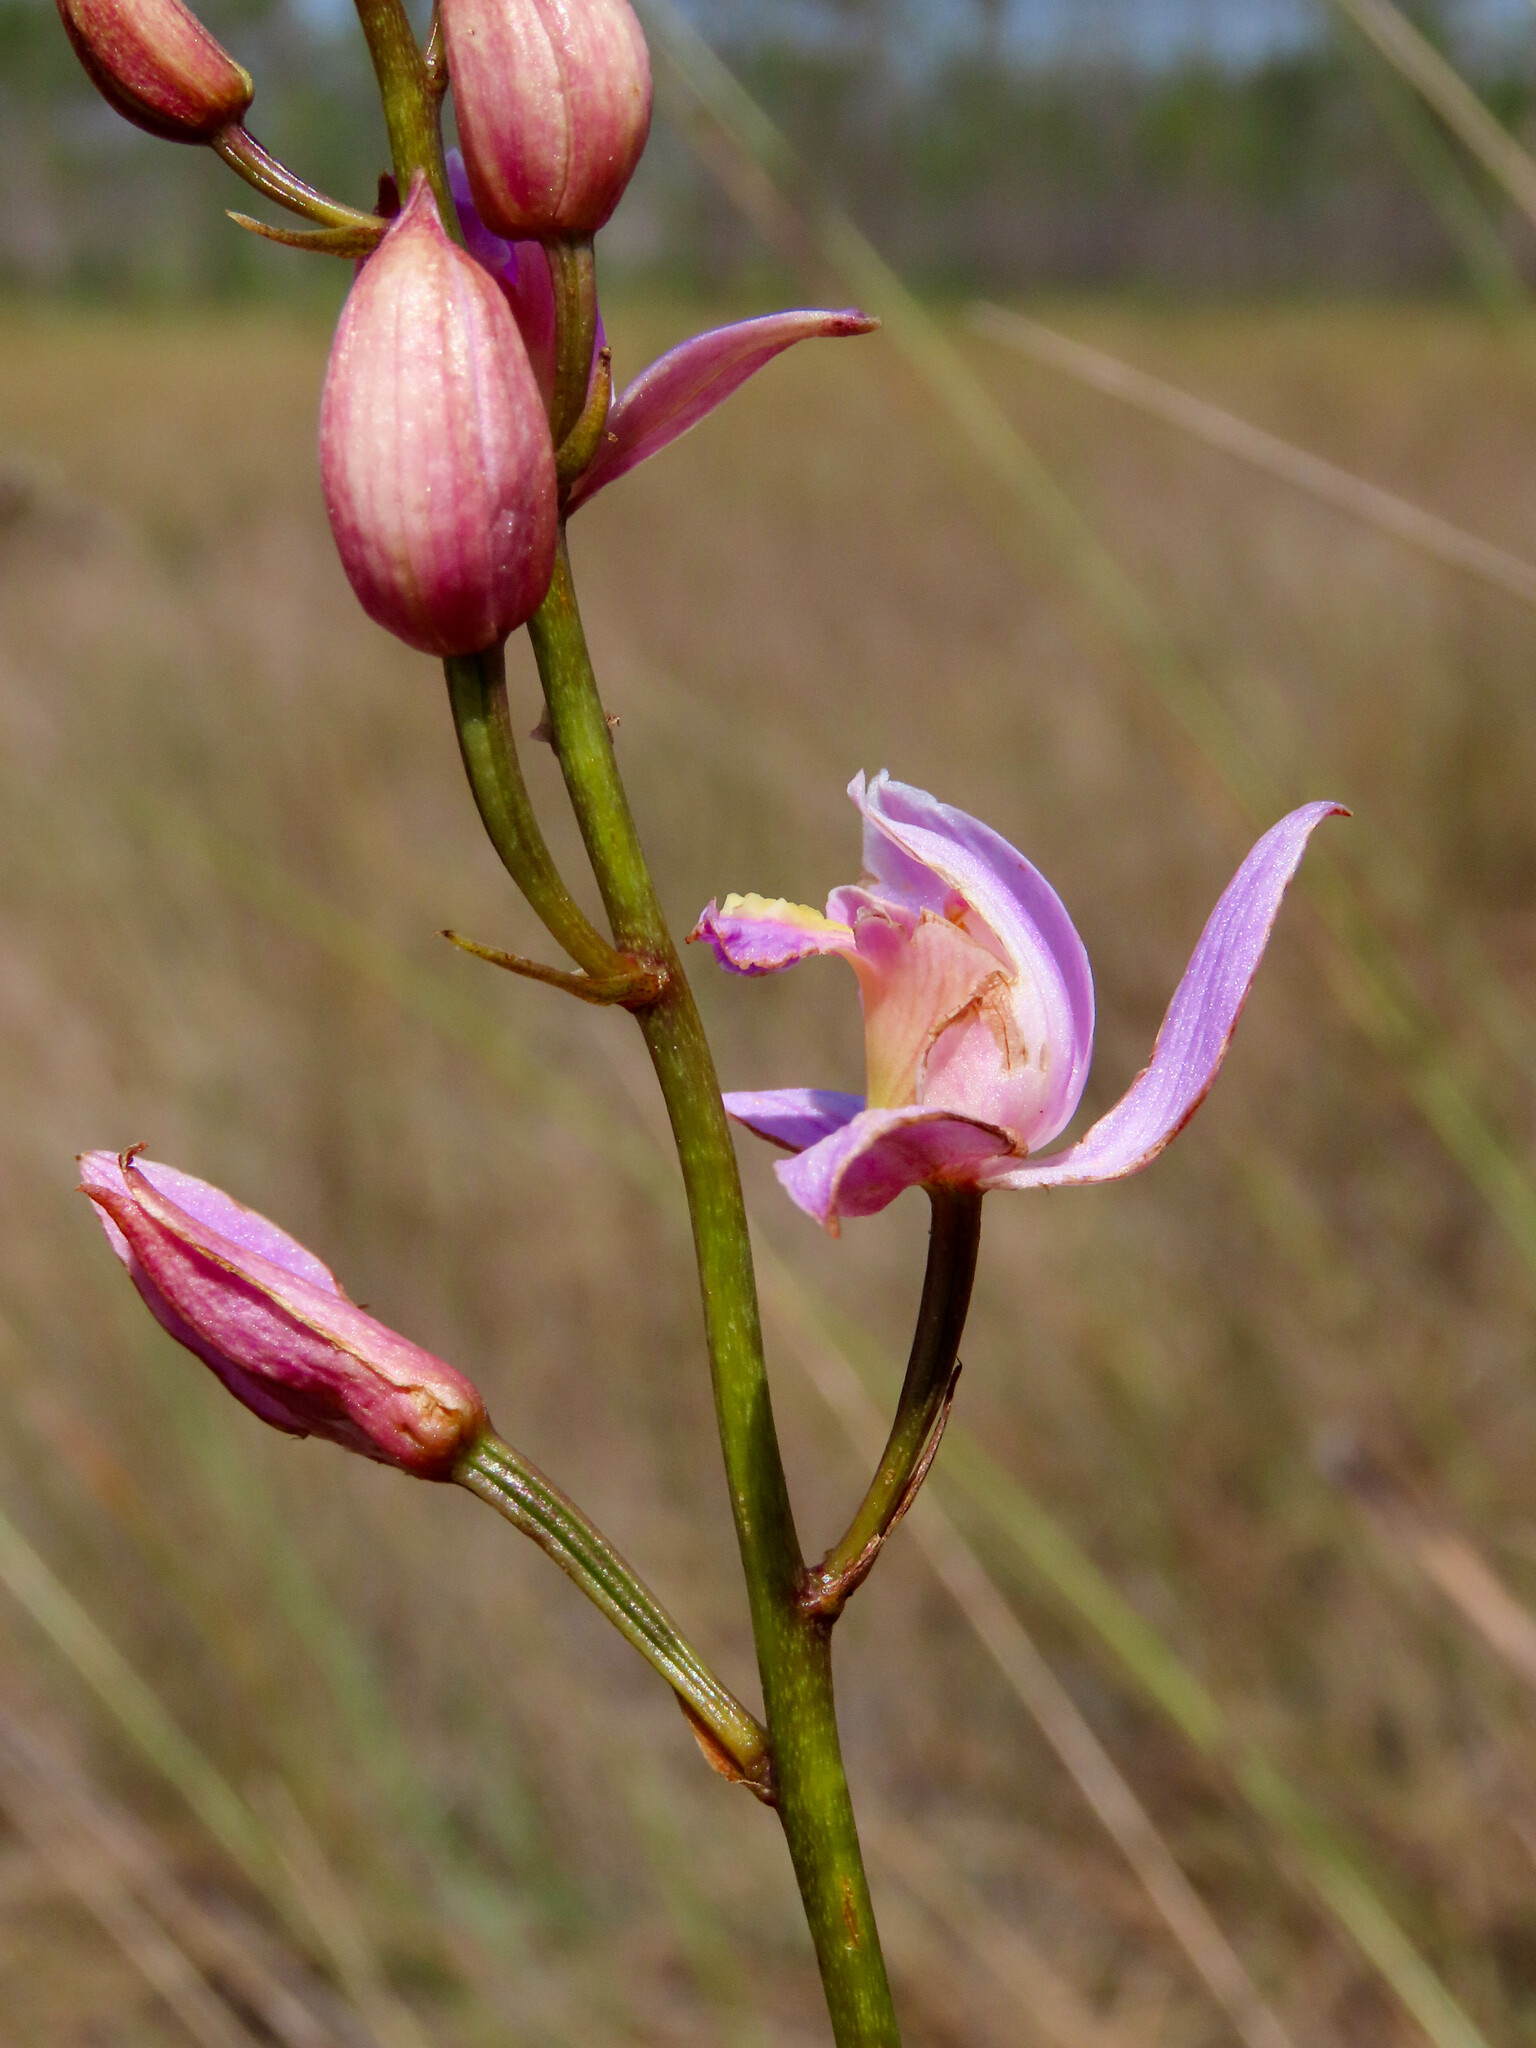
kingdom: Plantae
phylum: Tracheophyta
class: Liliopsida
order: Asparagales
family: Orchidaceae
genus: Bletia
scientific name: Bletia purpurea
